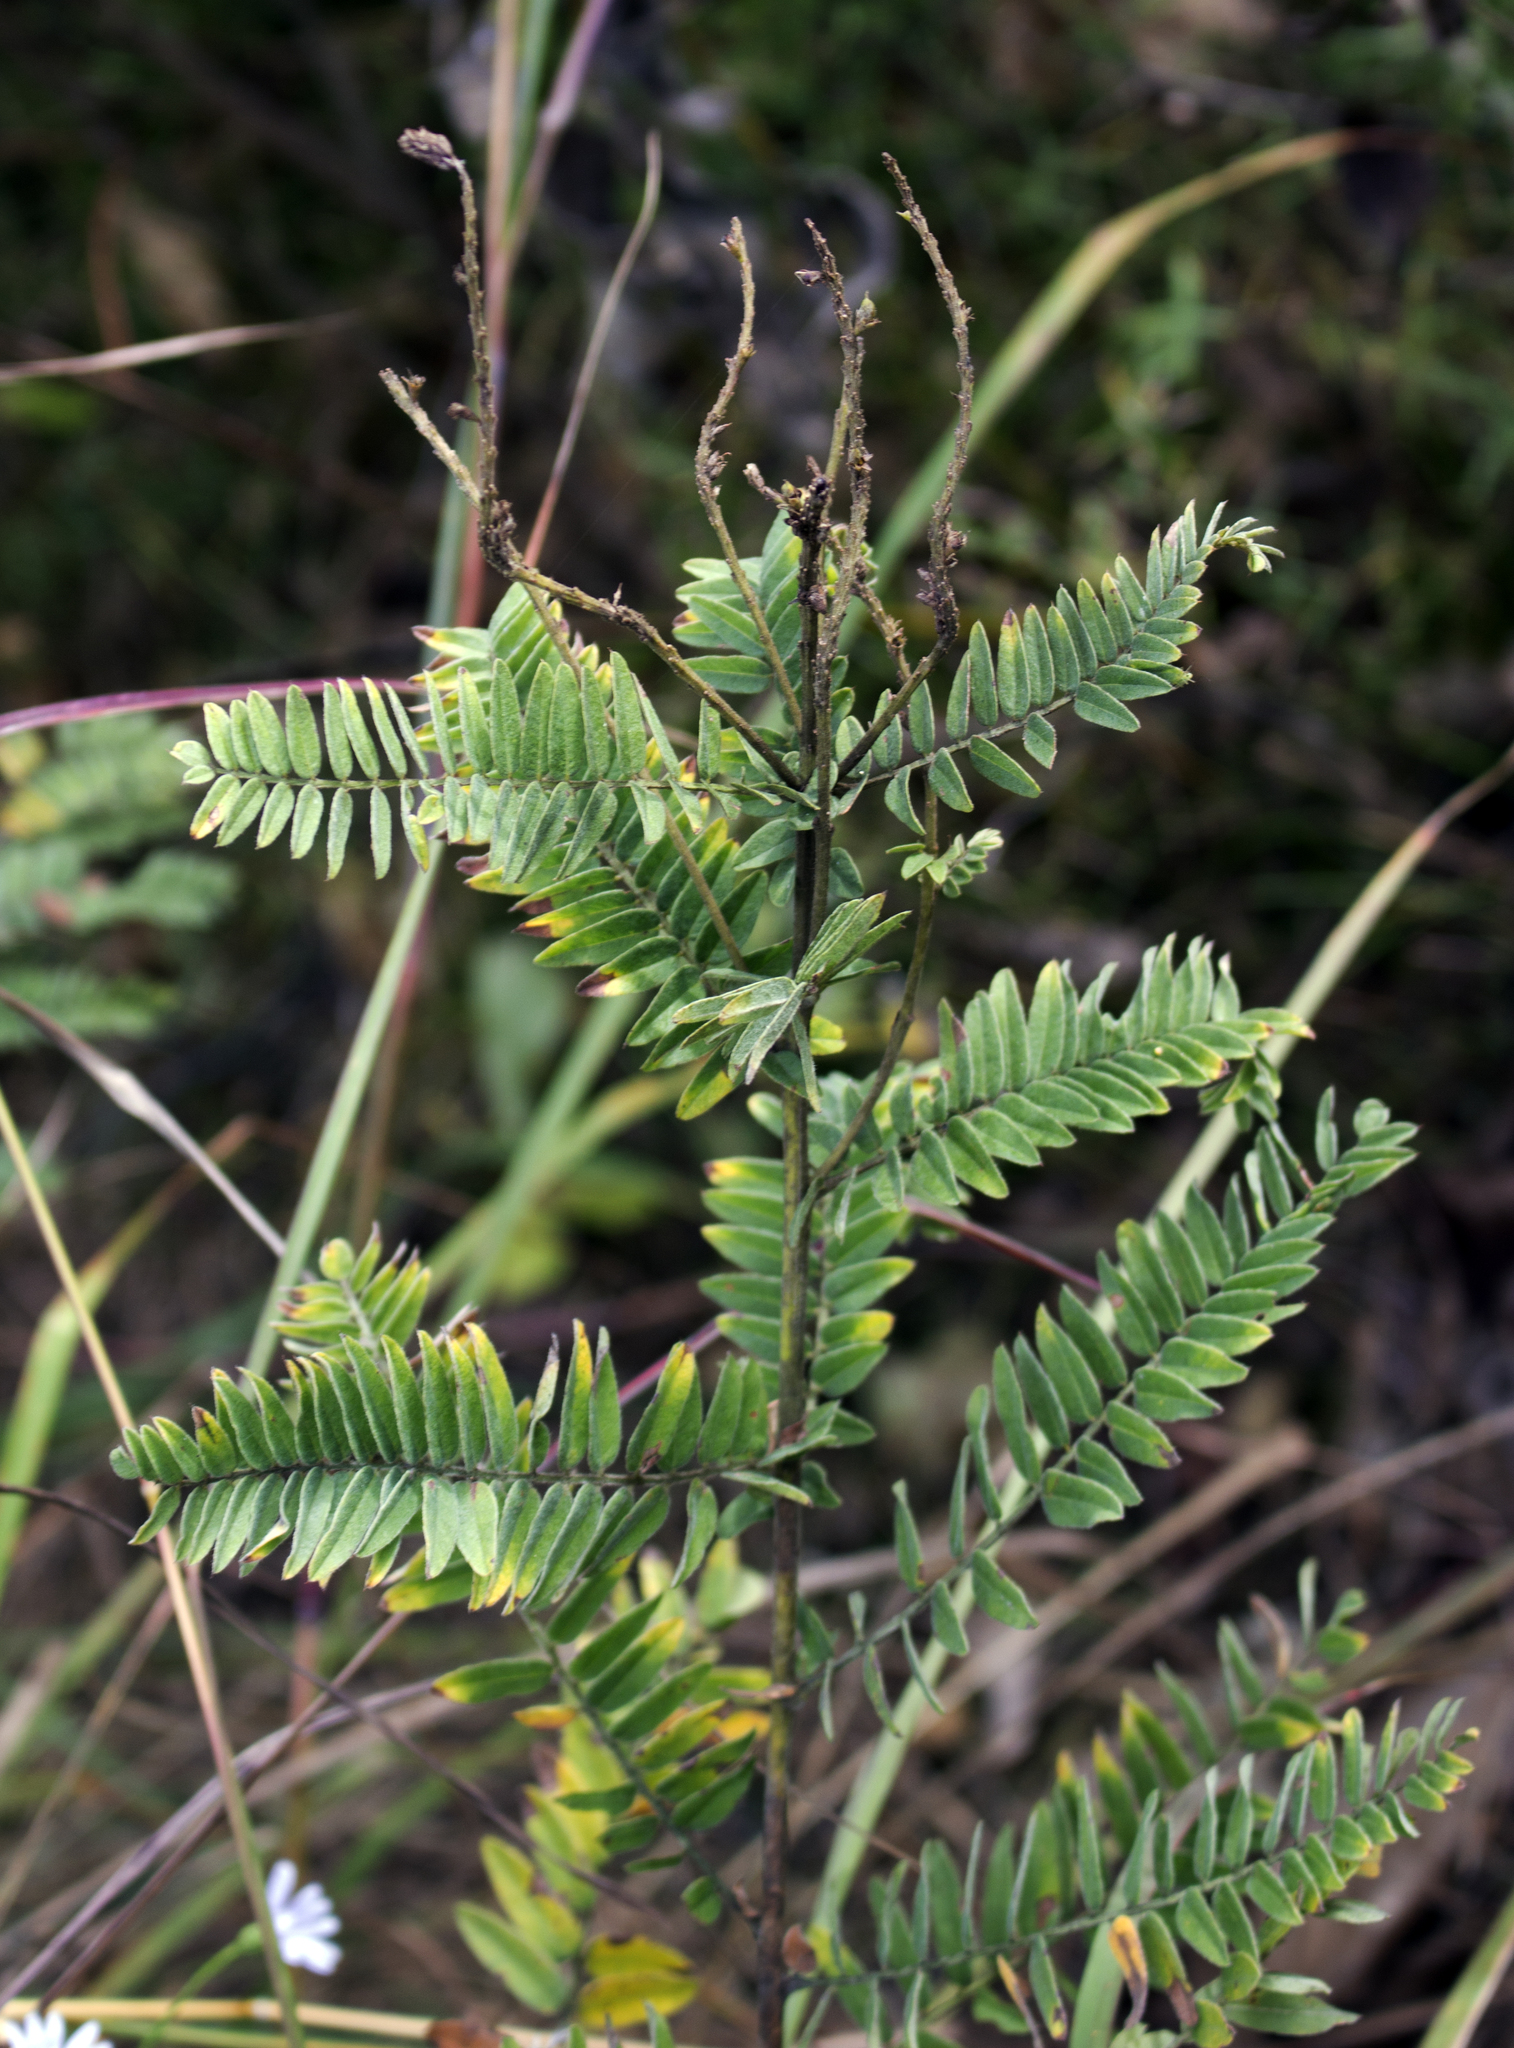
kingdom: Plantae
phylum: Tracheophyta
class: Magnoliopsida
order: Fabales
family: Fabaceae
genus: Amorpha
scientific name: Amorpha canescens
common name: Leadplant
